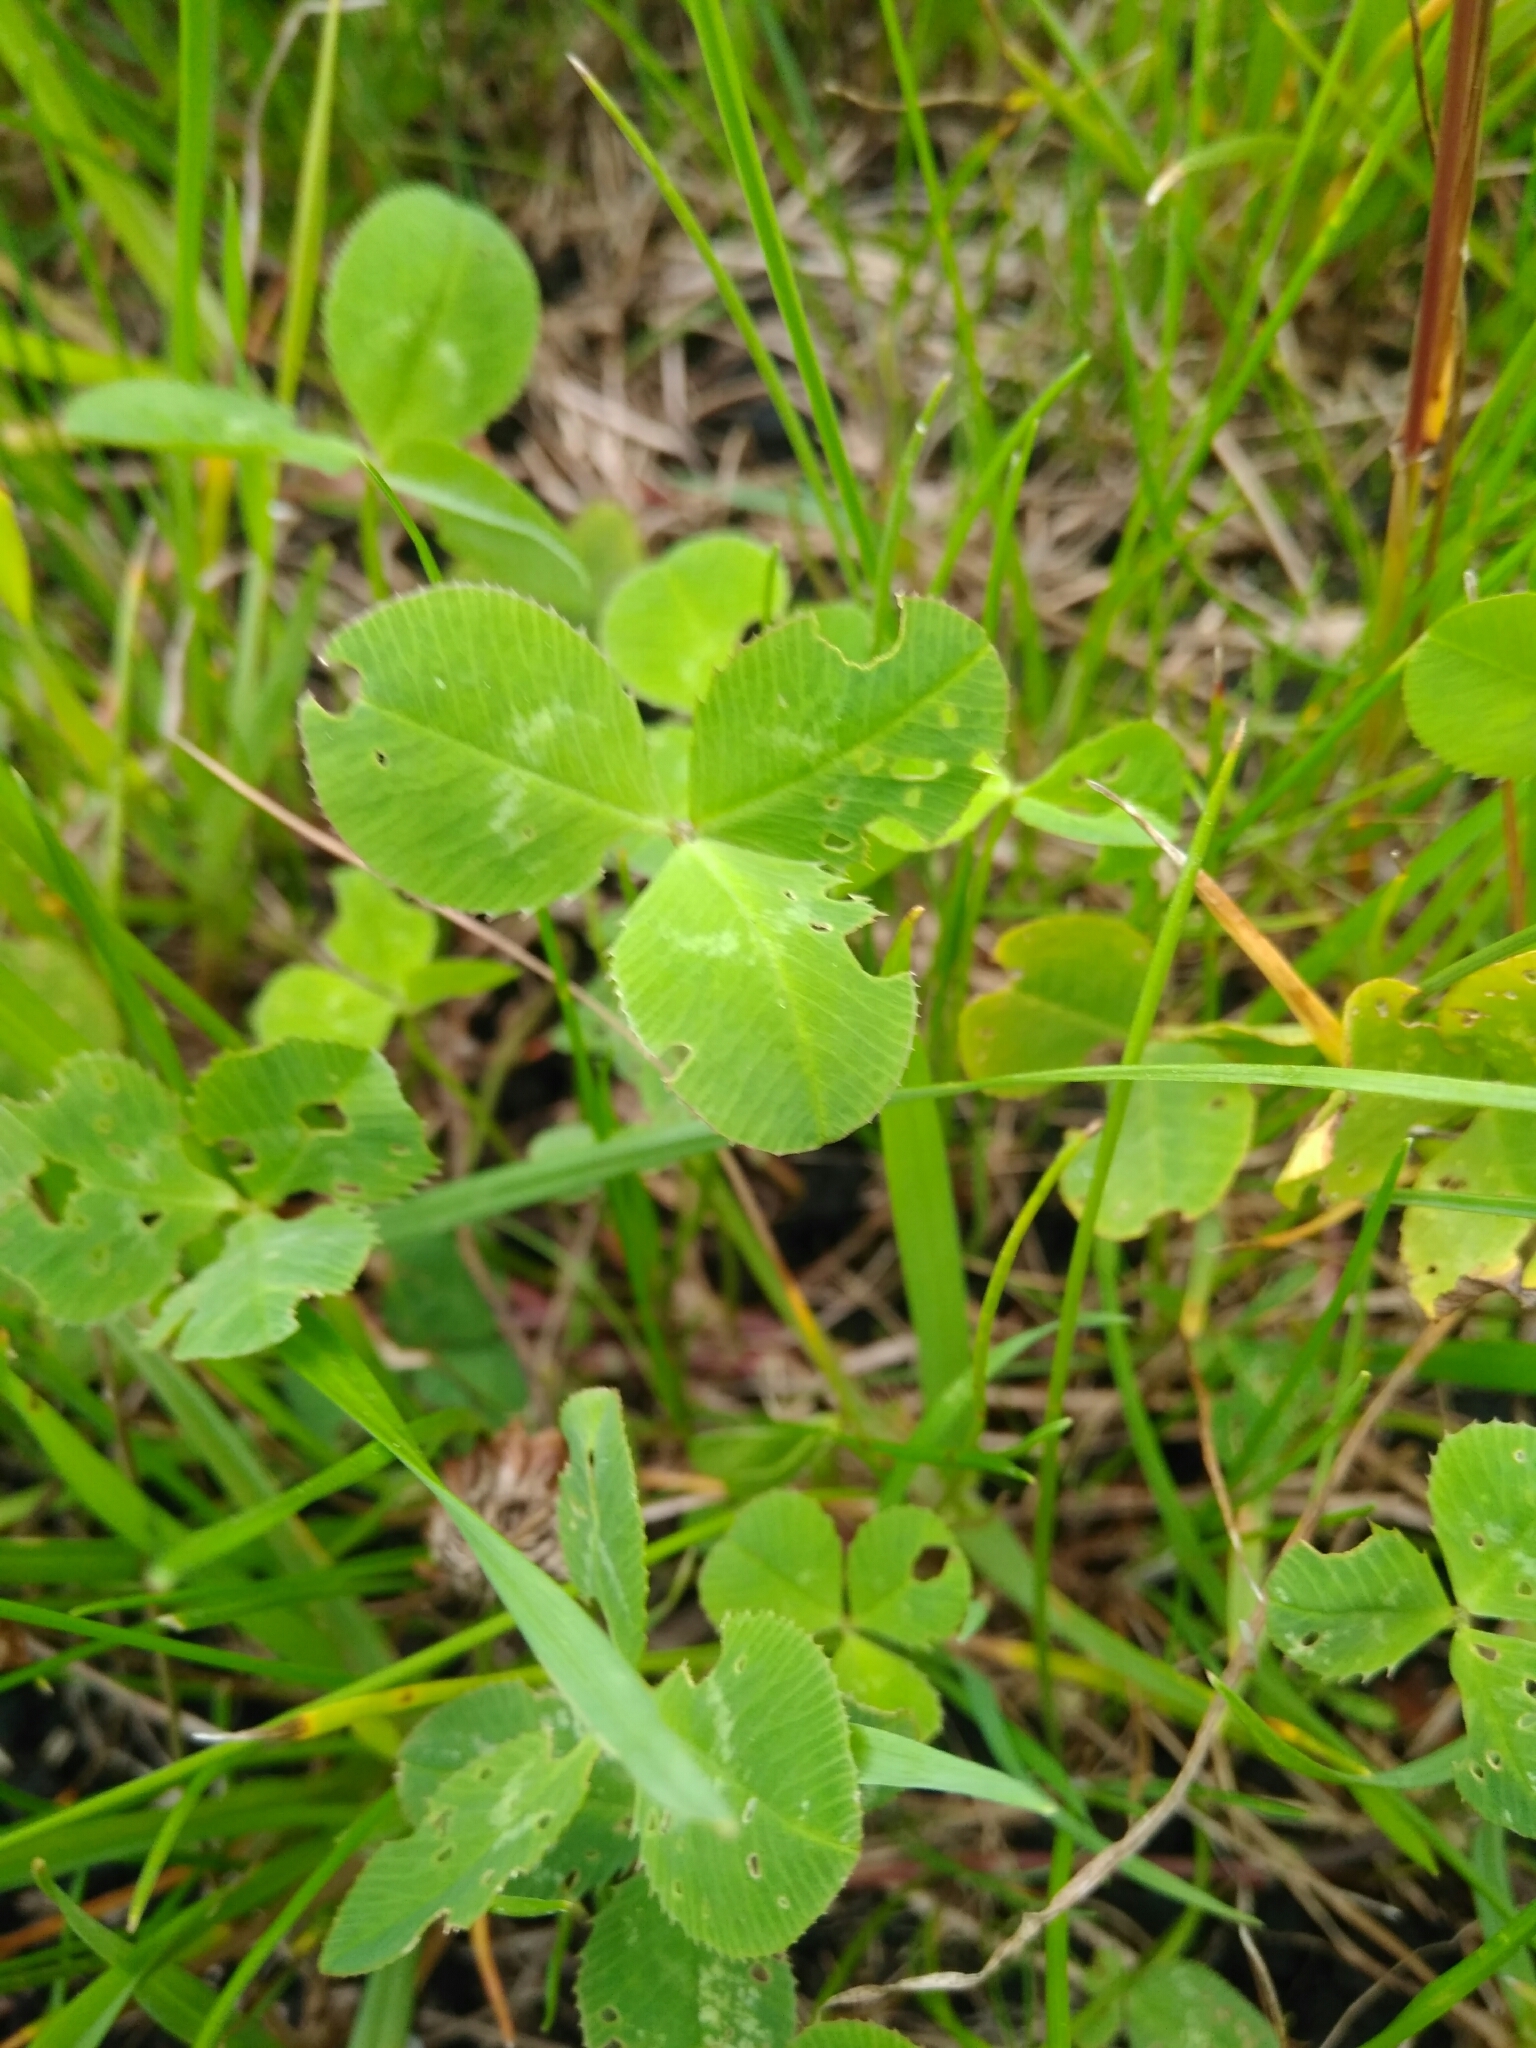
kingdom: Plantae
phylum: Tracheophyta
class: Magnoliopsida
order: Fabales
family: Fabaceae
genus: Trifolium
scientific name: Trifolium repens
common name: White clover
